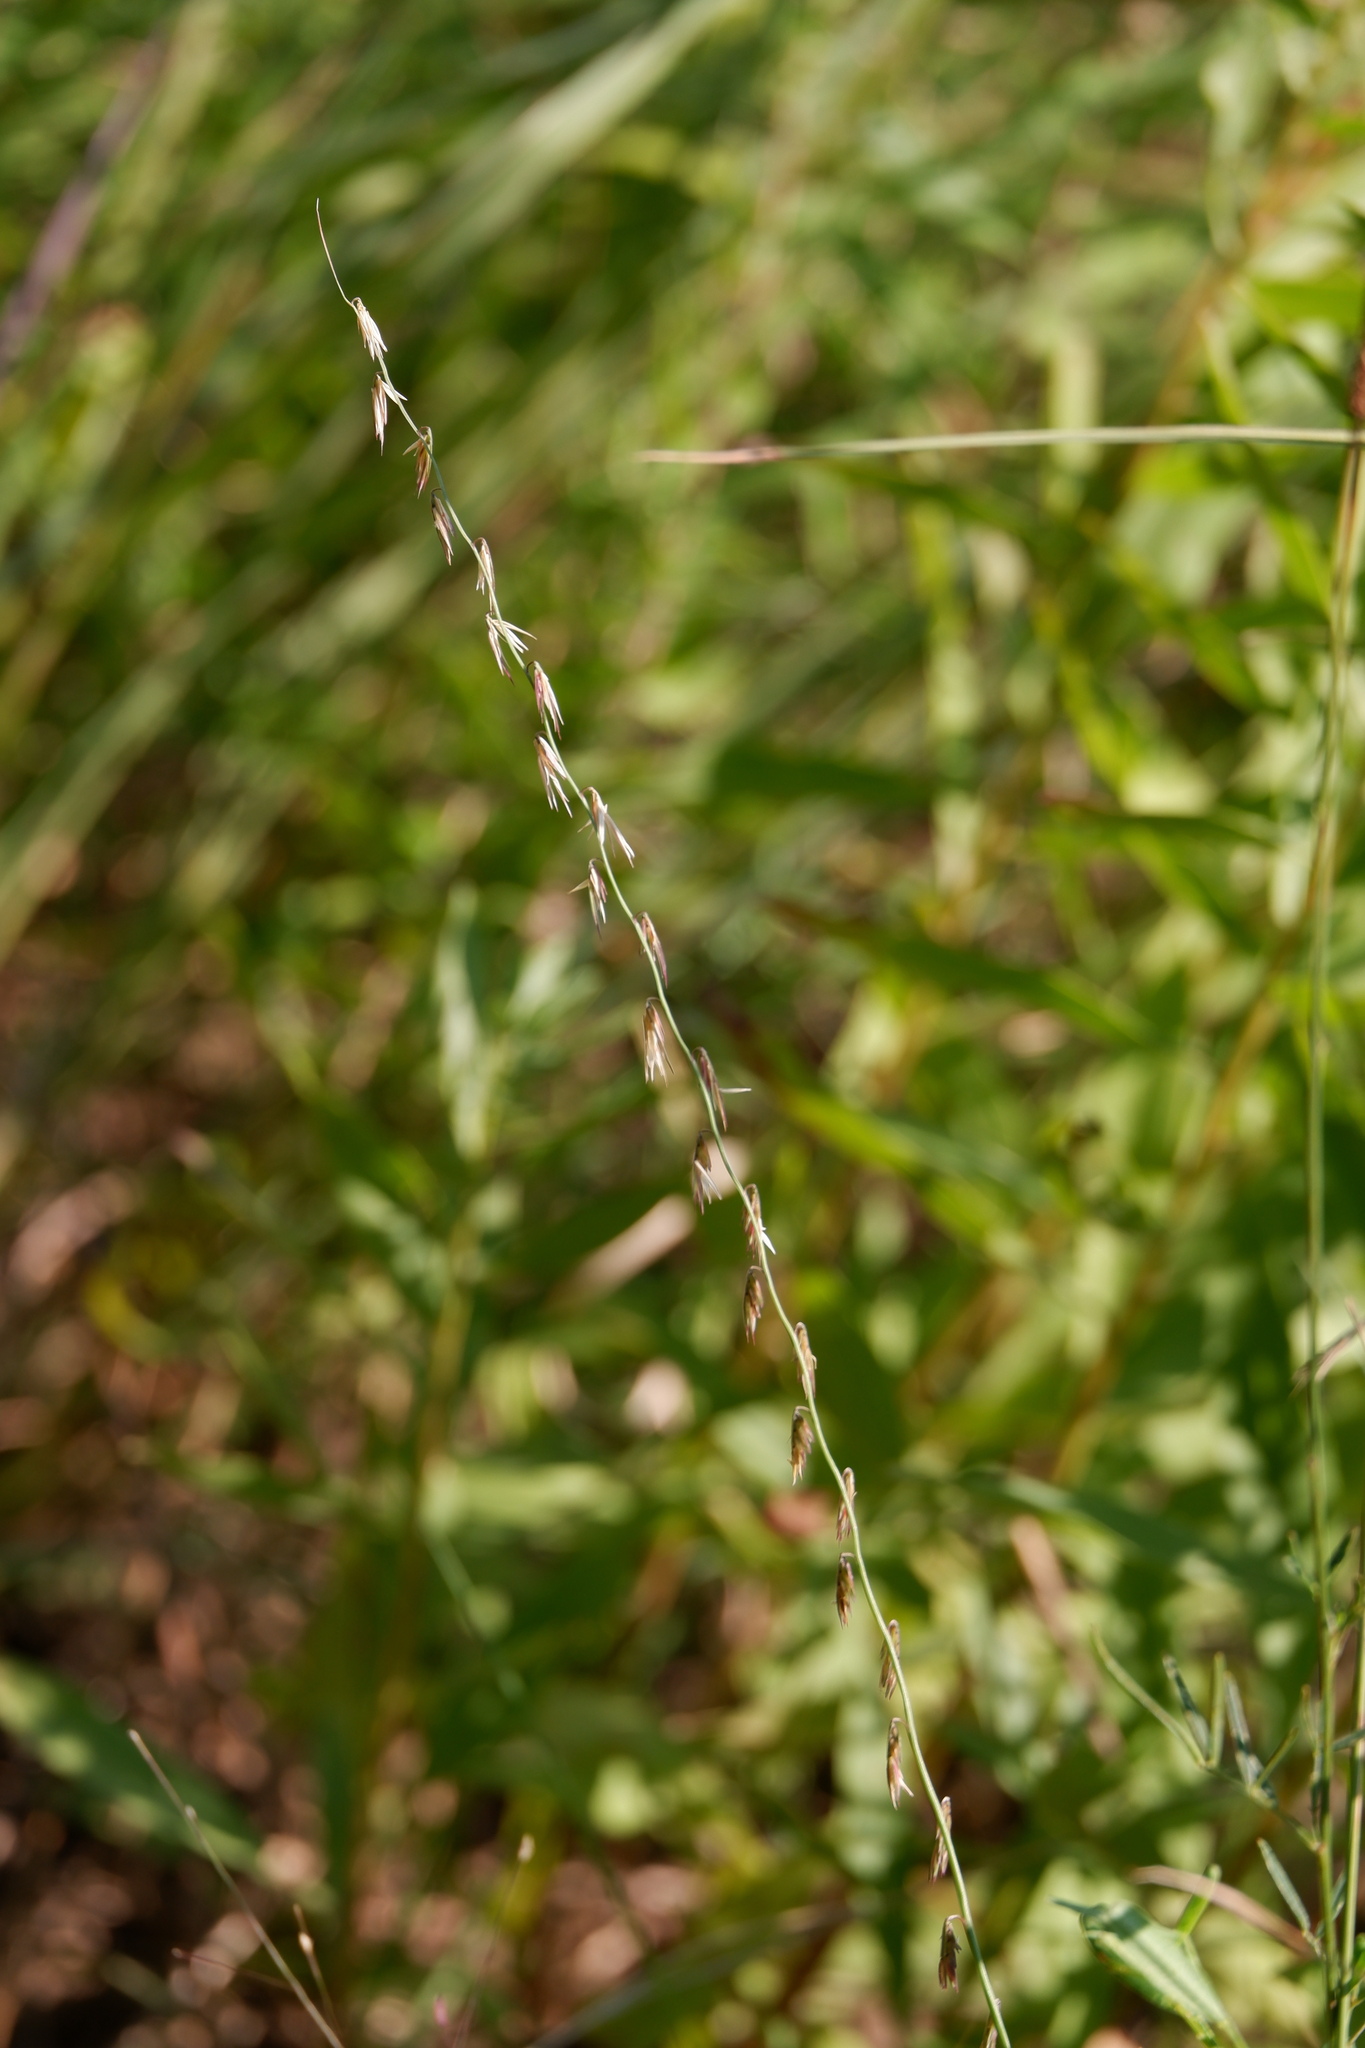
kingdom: Plantae
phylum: Tracheophyta
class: Liliopsida
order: Poales
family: Poaceae
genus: Bouteloua
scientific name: Bouteloua curtipendula
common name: Side-oats grama
